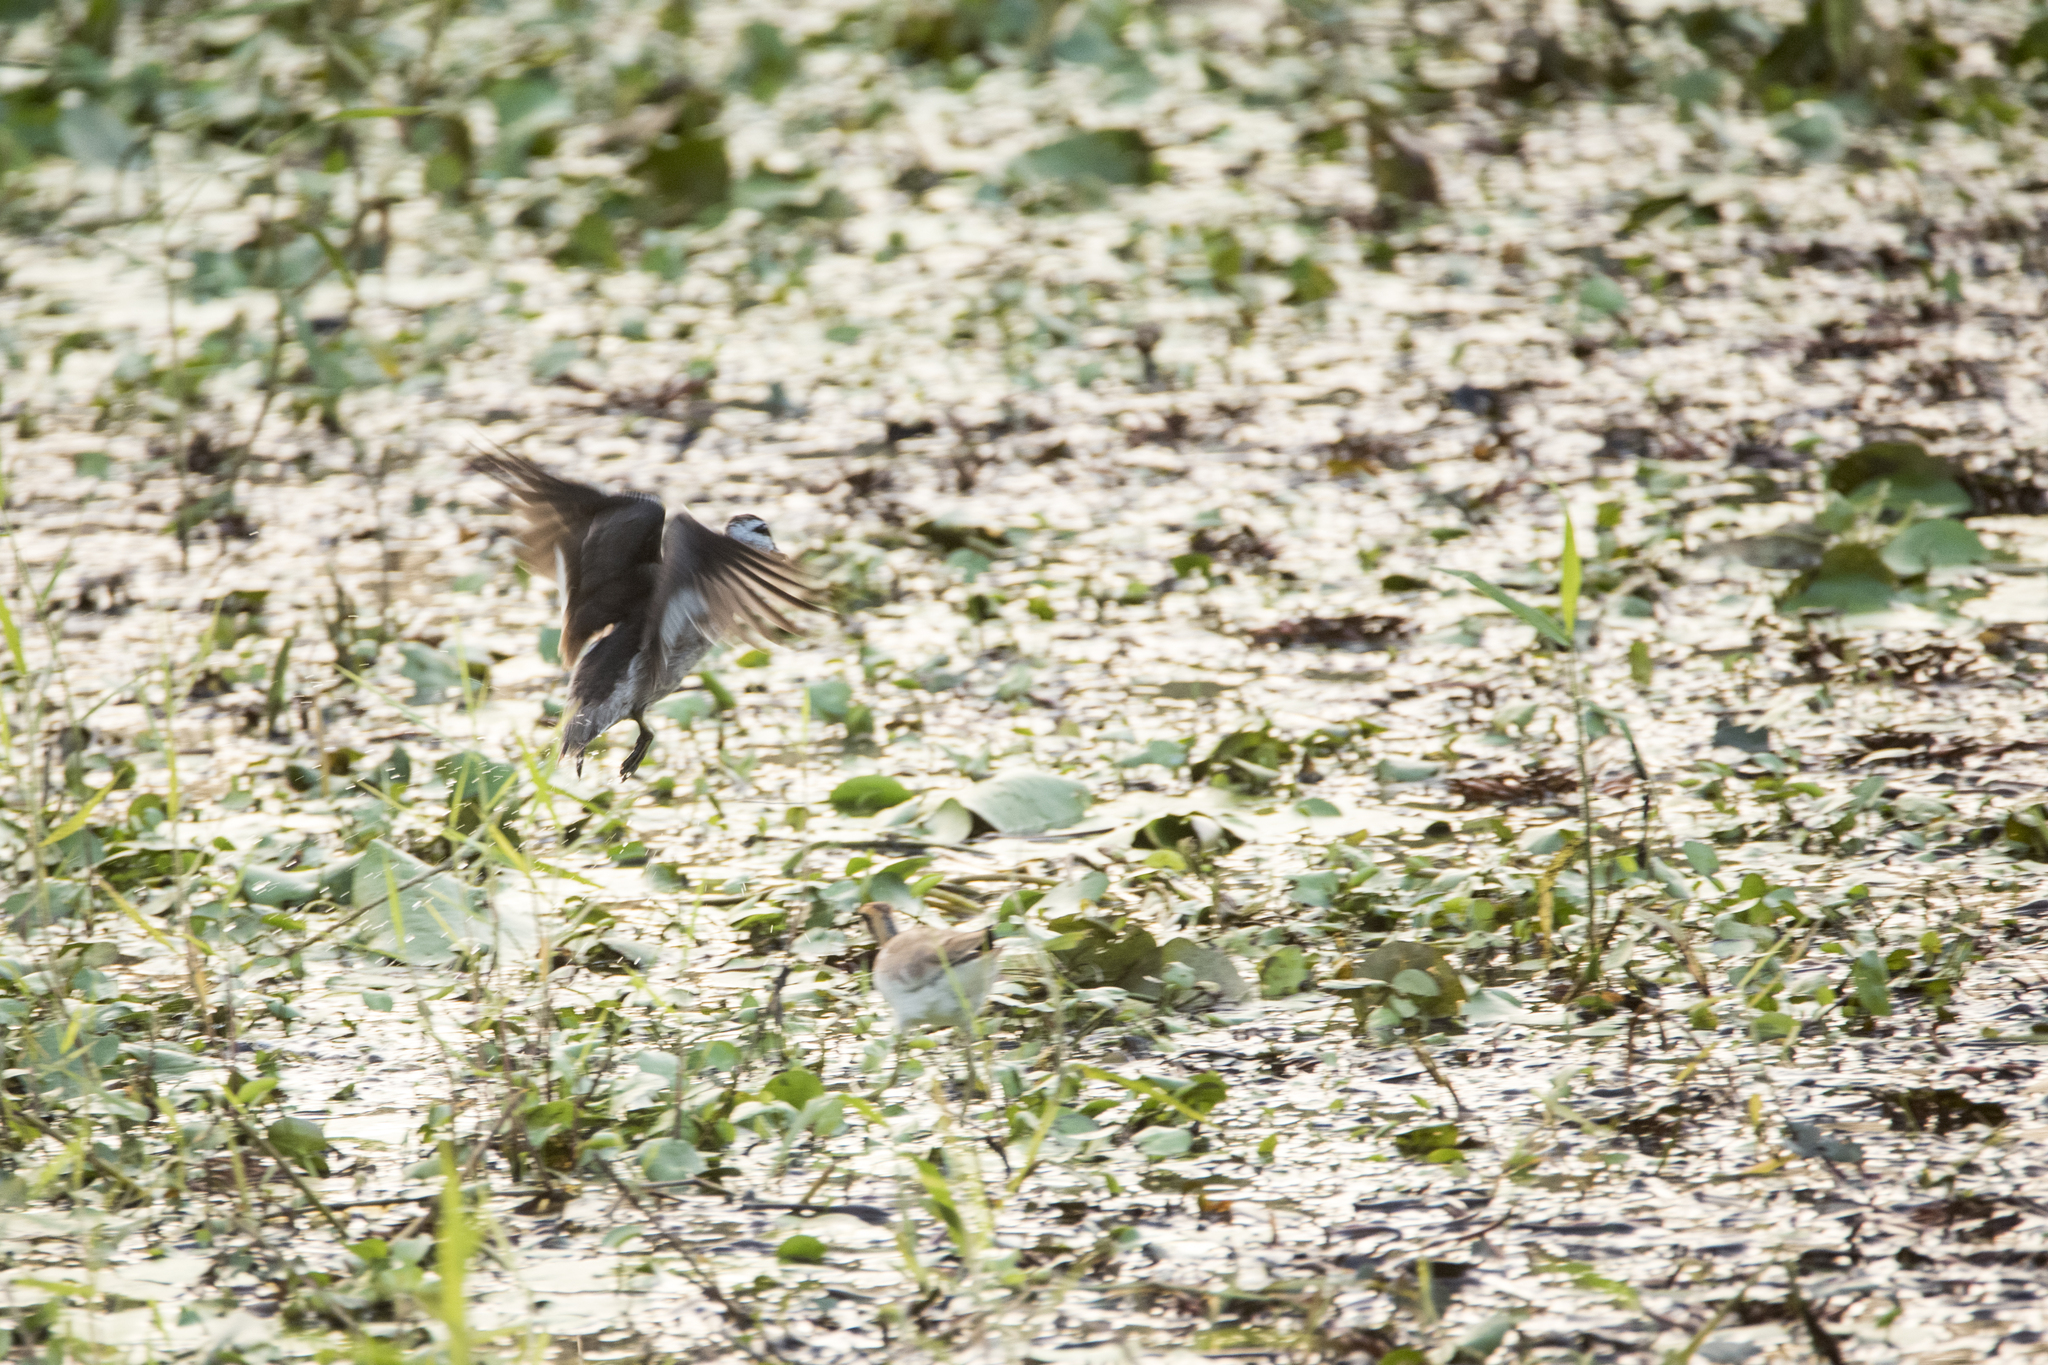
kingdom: Animalia
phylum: Chordata
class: Aves
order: Anseriformes
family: Anatidae
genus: Nettapus
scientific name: Nettapus coromandelianus
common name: Cotton pygmy-goose
